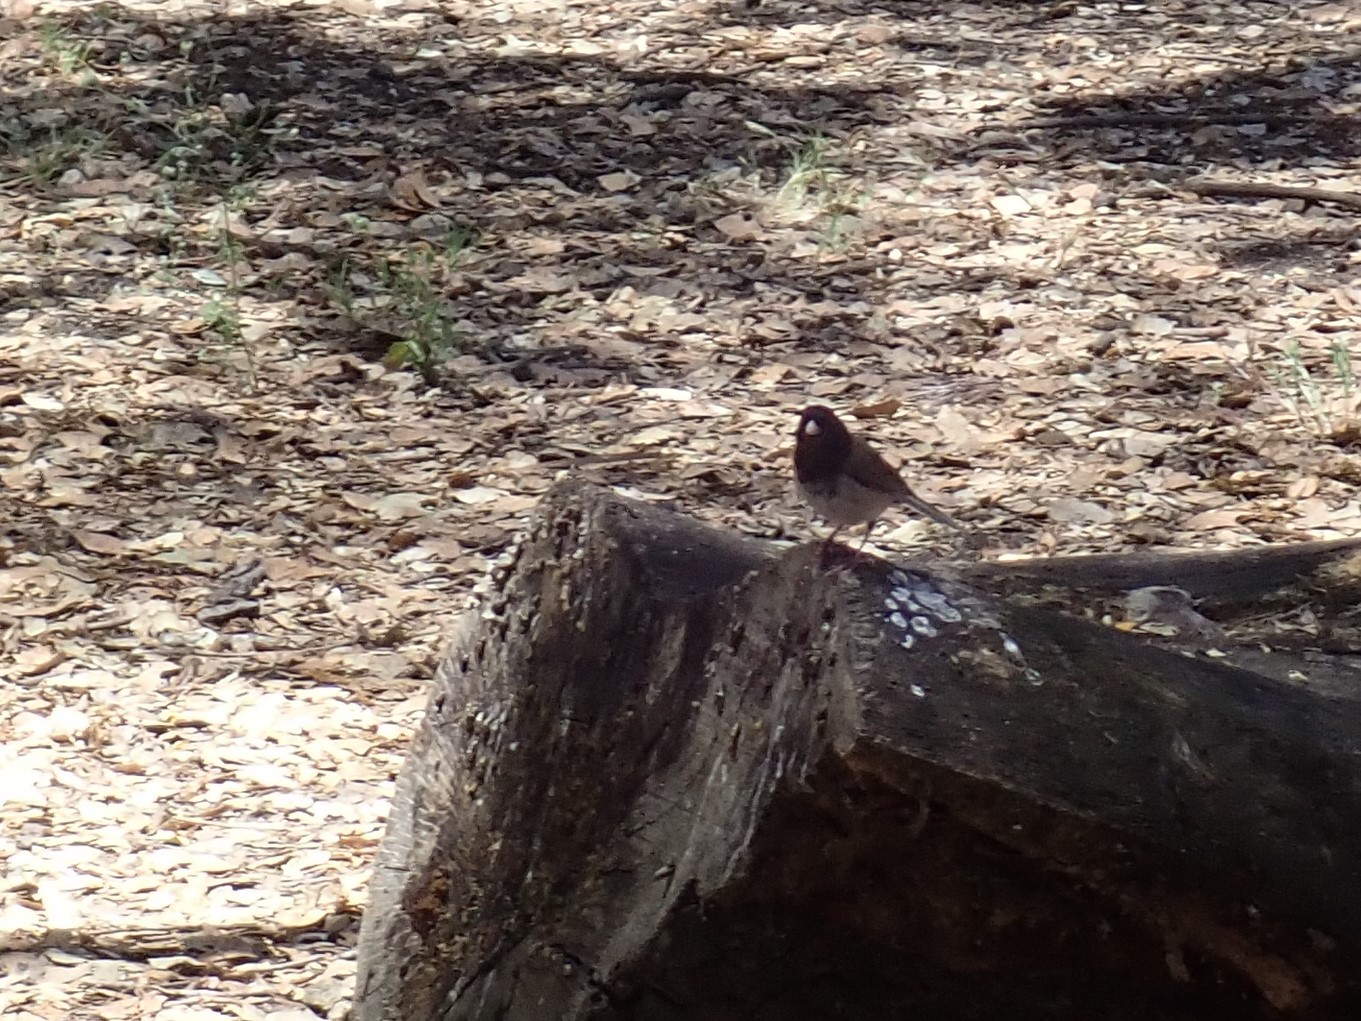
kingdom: Animalia
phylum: Chordata
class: Aves
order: Passeriformes
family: Passerellidae
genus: Junco
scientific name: Junco hyemalis
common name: Dark-eyed junco
